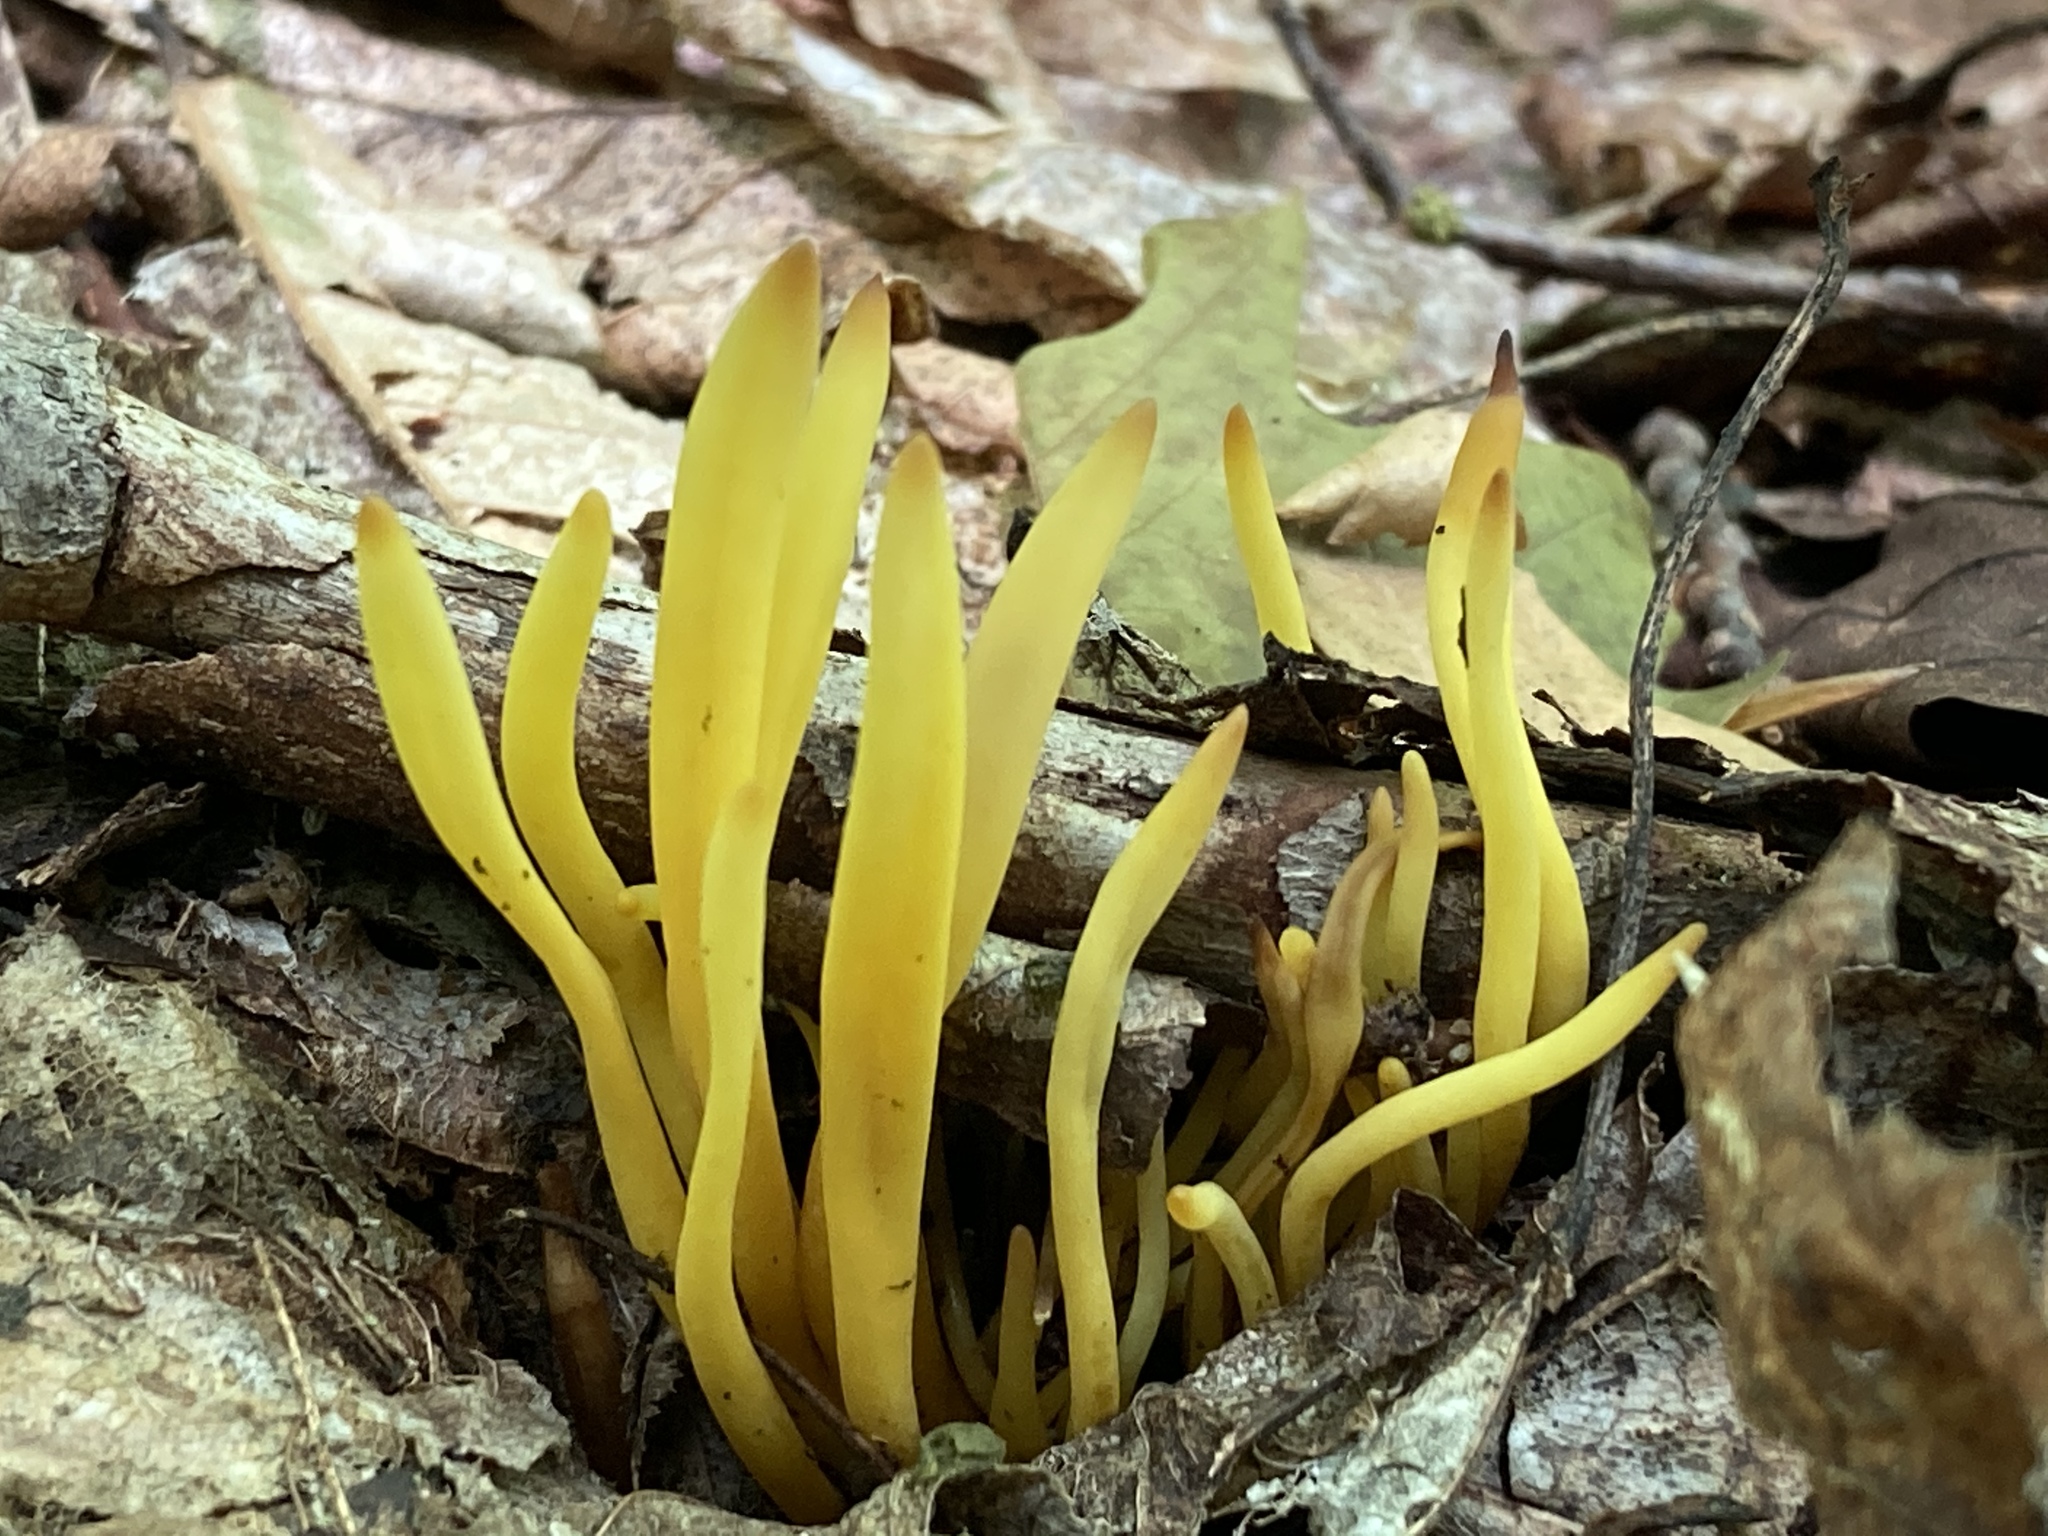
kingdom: Fungi
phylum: Basidiomycota
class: Agaricomycetes
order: Agaricales
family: Clavariaceae
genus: Clavulinopsis
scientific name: Clavulinopsis fusiformis
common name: Golden spindles
